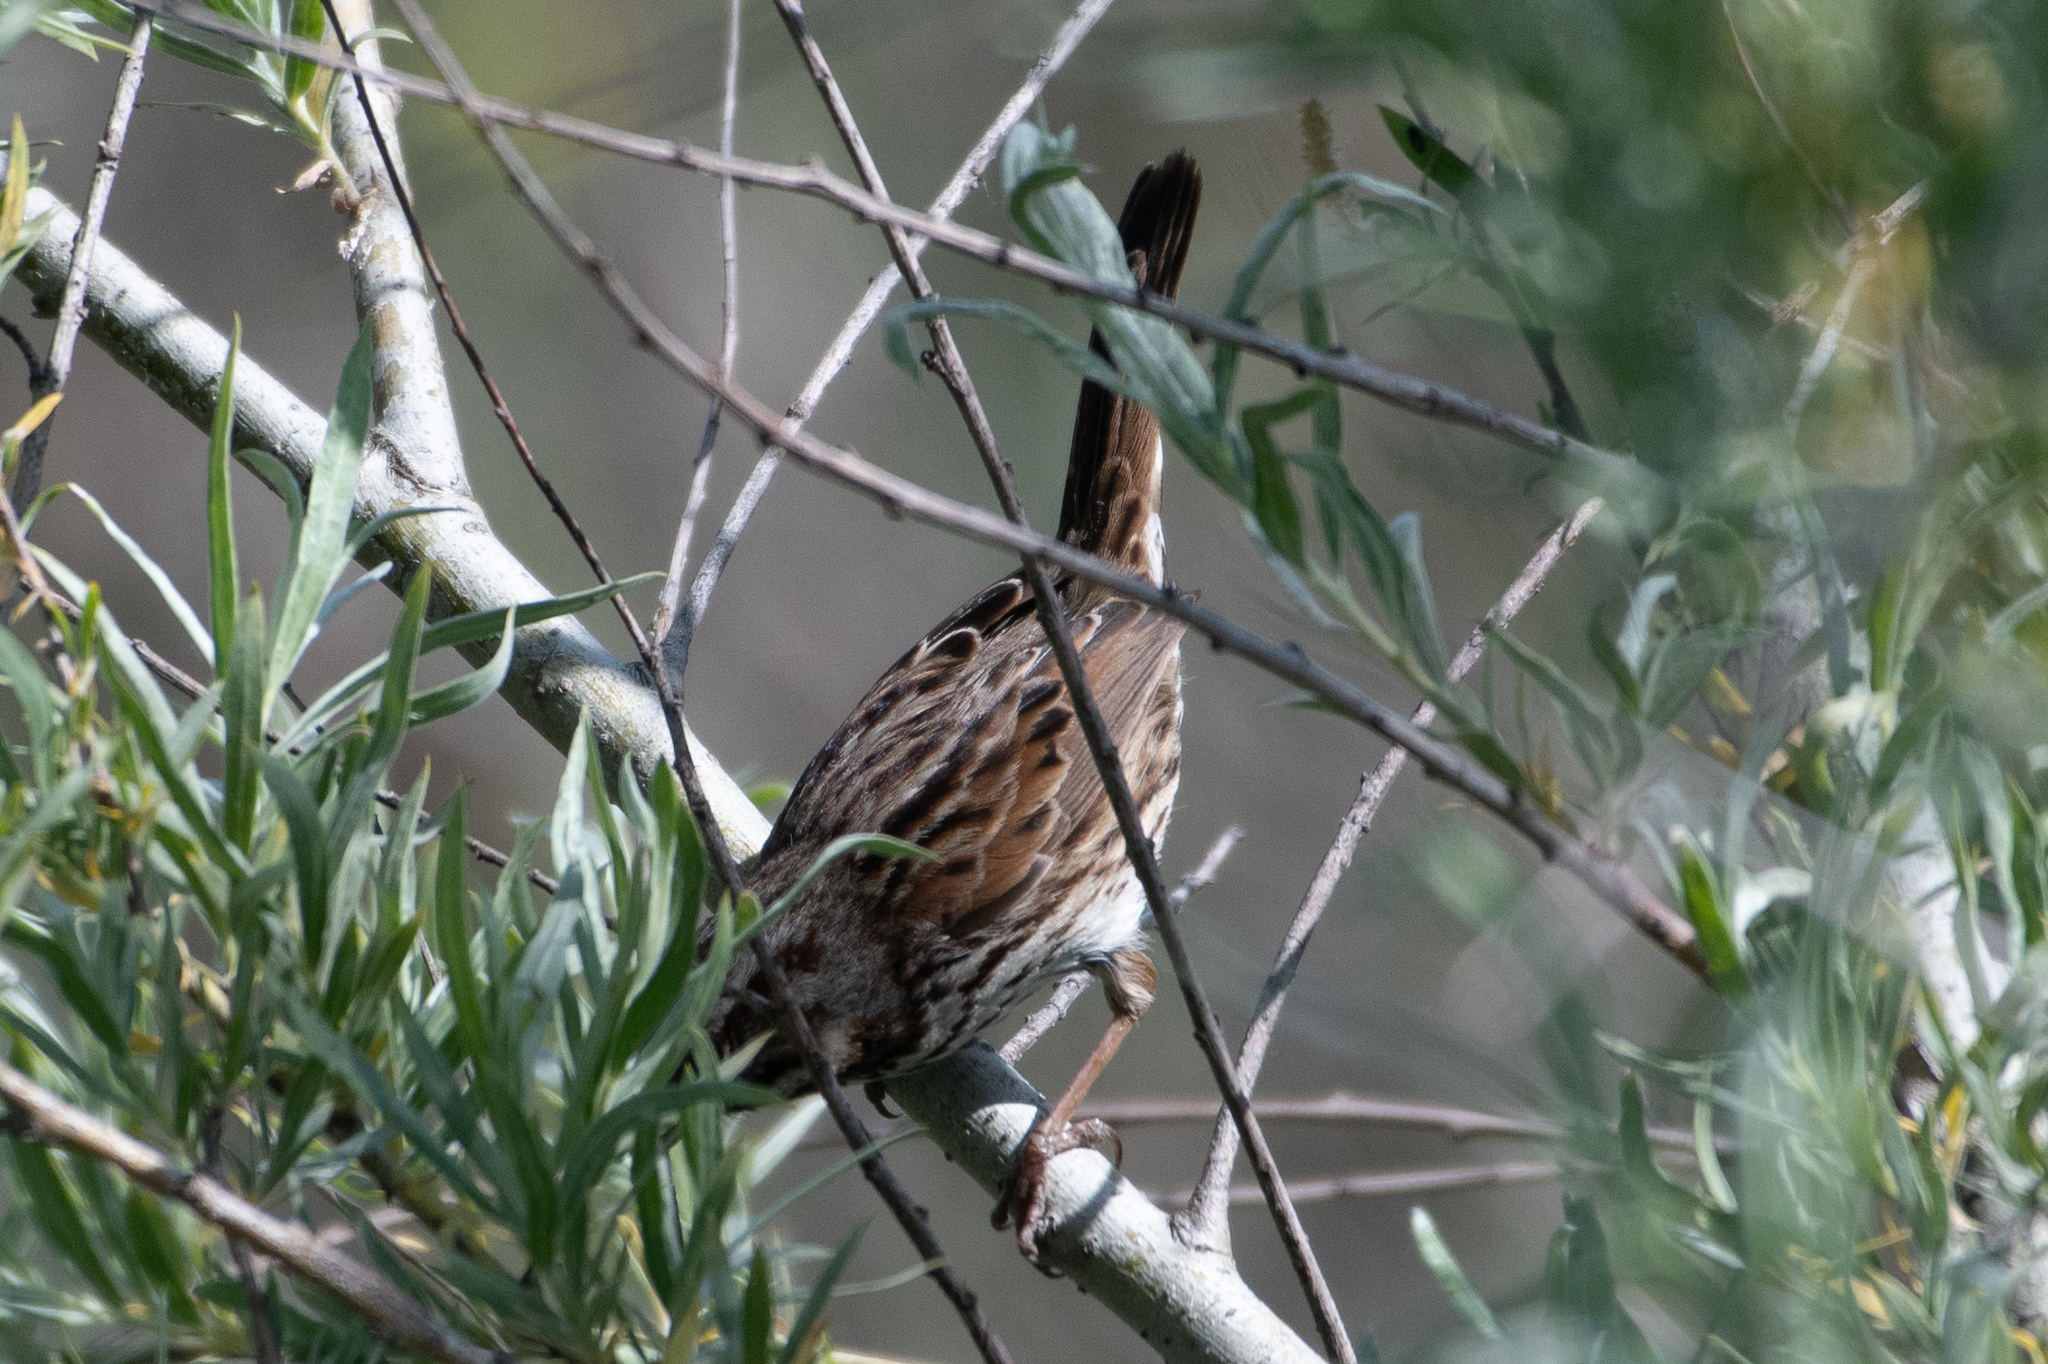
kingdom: Animalia
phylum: Chordata
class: Aves
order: Passeriformes
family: Passerellidae
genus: Melospiza
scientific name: Melospiza melodia
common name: Song sparrow
